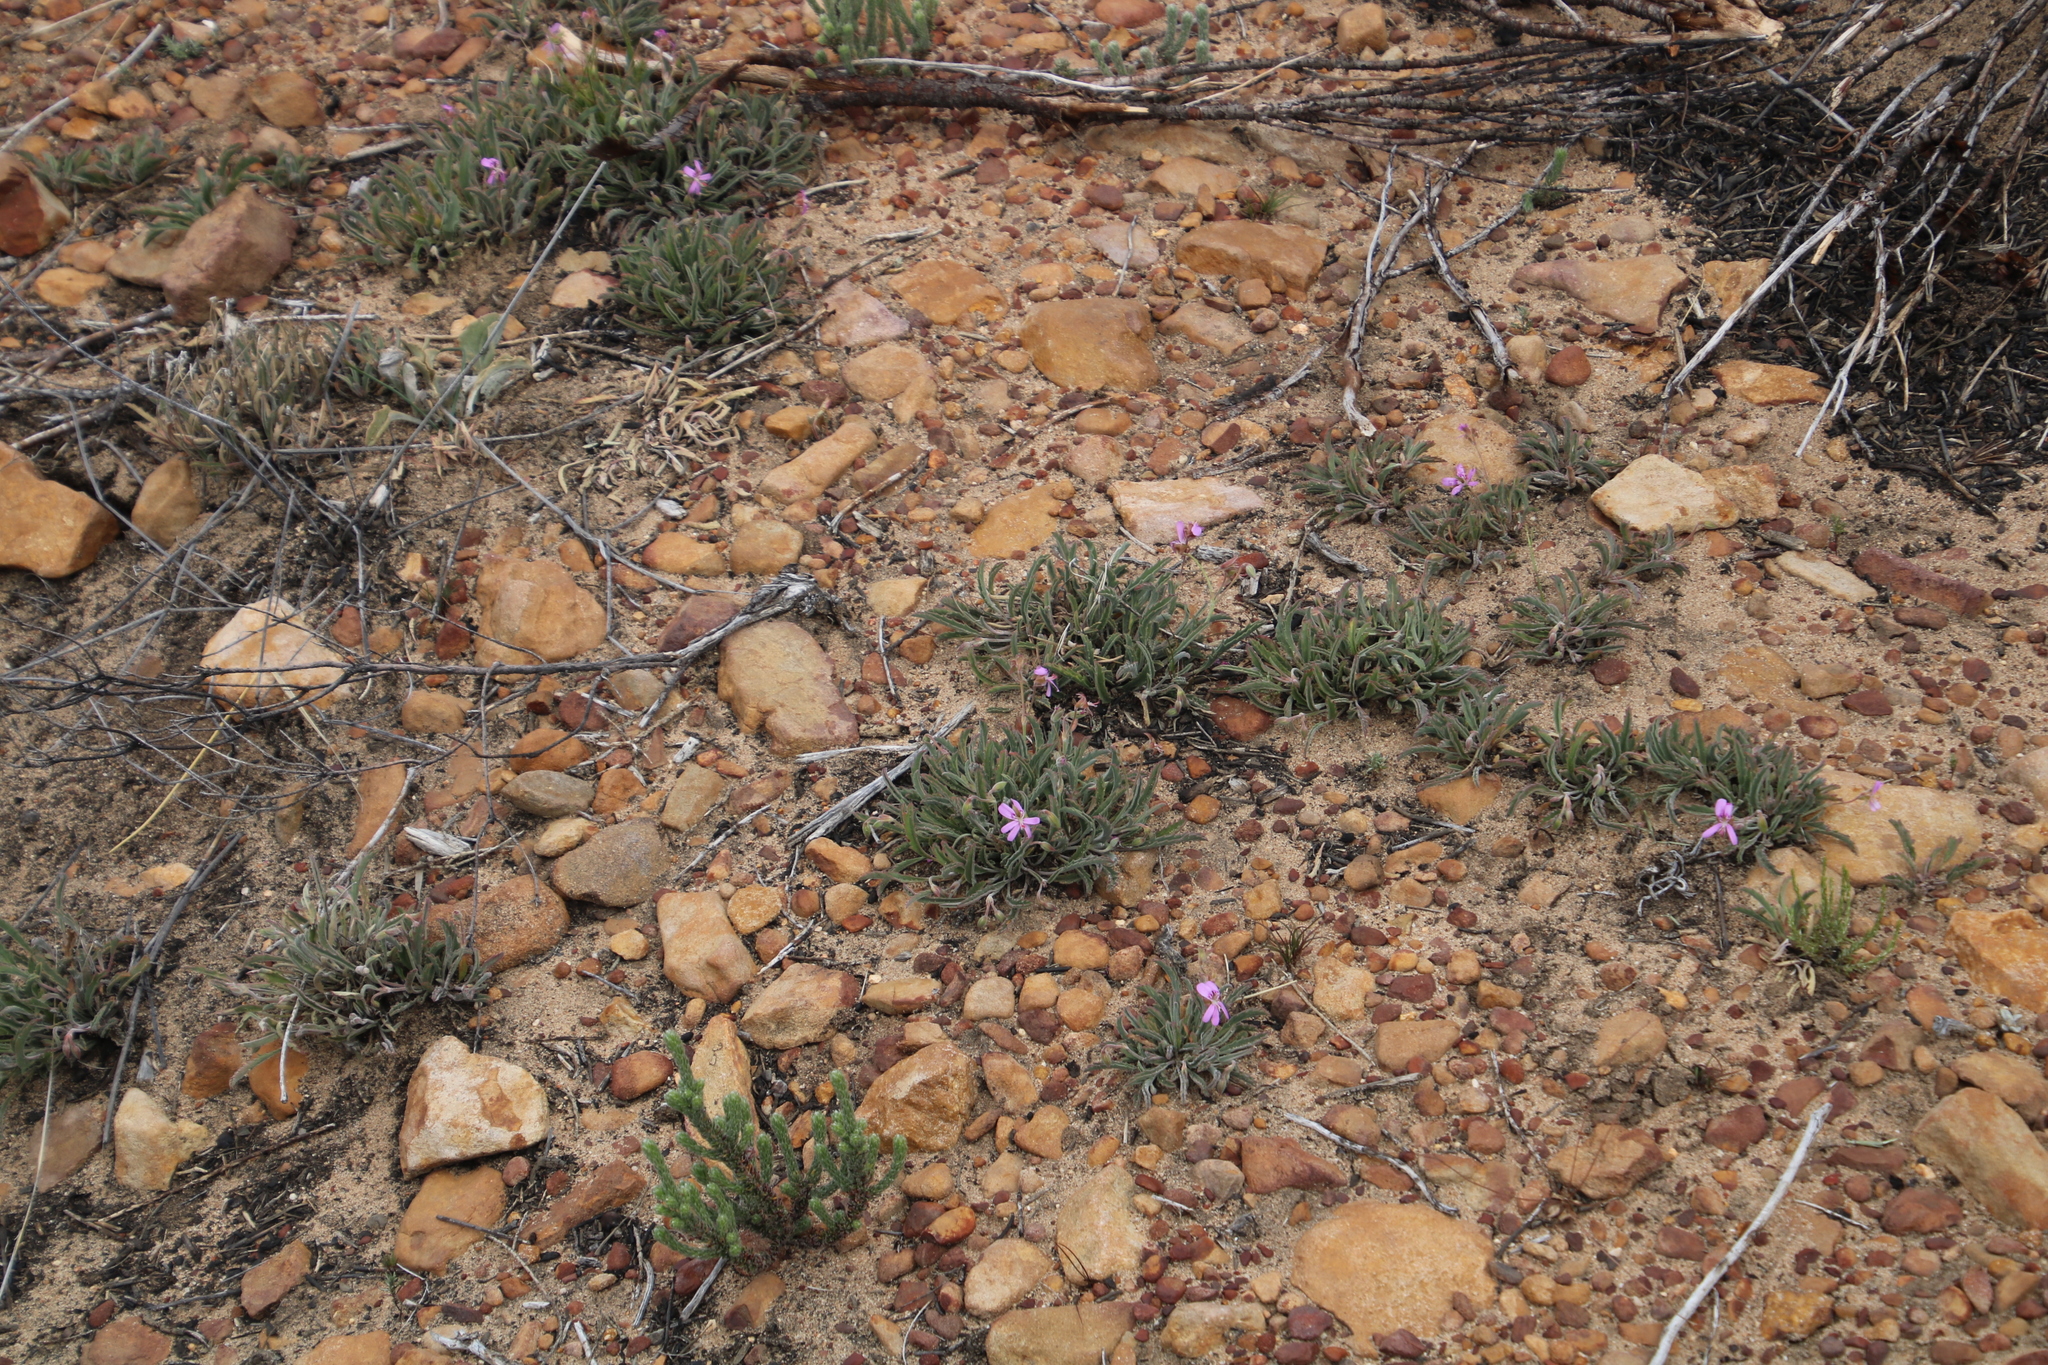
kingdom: Plantae
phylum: Tracheophyta
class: Magnoliopsida
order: Geraniales
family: Geraniaceae
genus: Pelargonium
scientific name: Pelargonium coronopifolium
